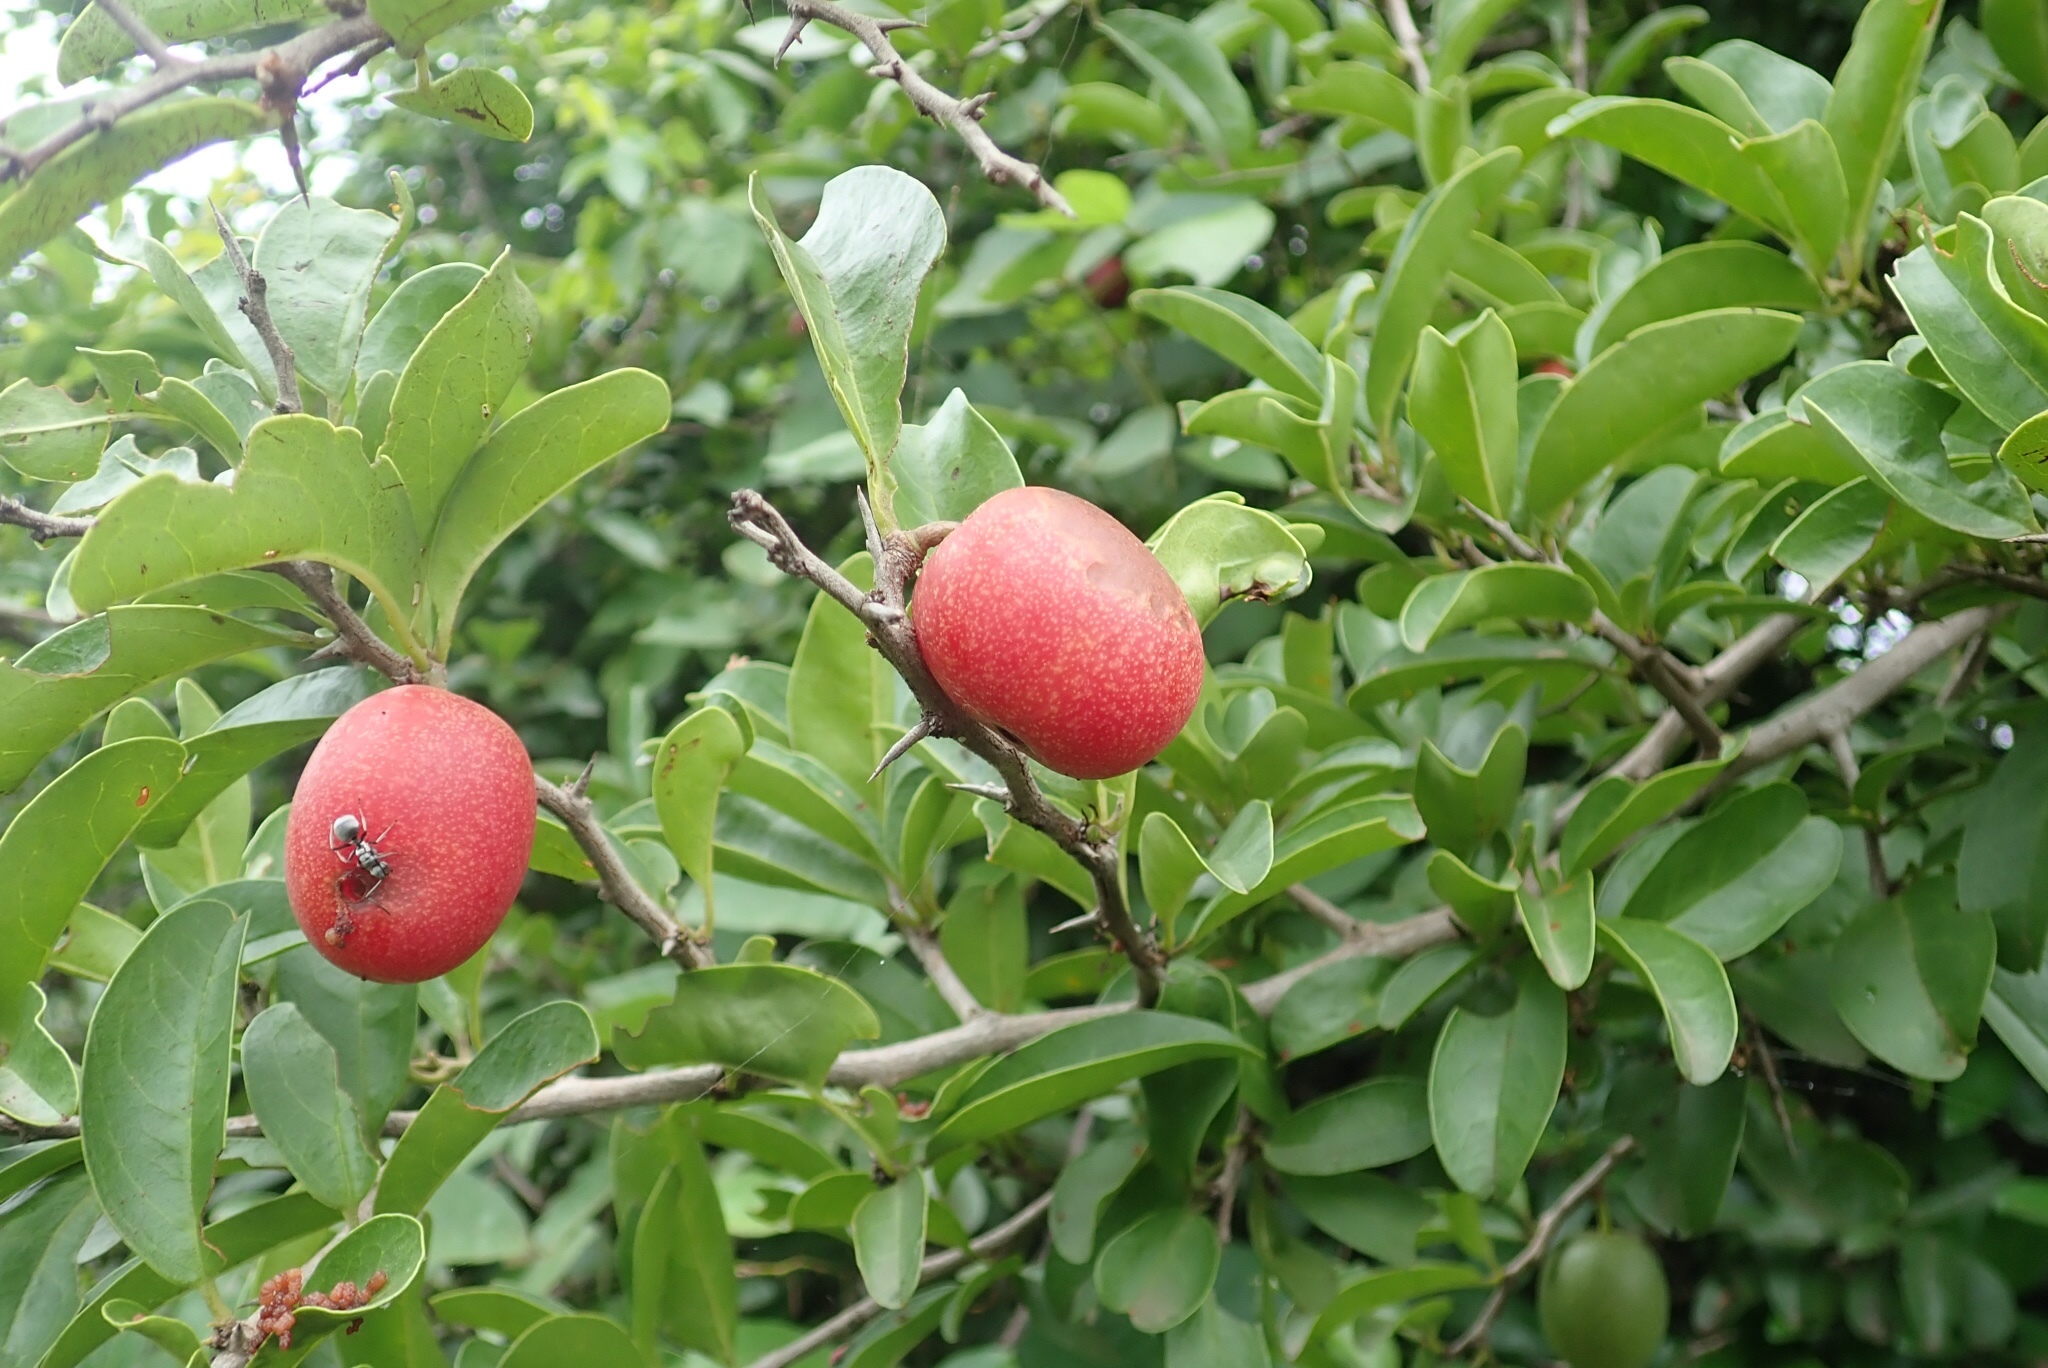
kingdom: Plantae
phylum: Tracheophyta
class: Magnoliopsida
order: Santalales
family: Ximeniaceae
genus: Ximenia
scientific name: Ximenia caffra
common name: Large sourplum
